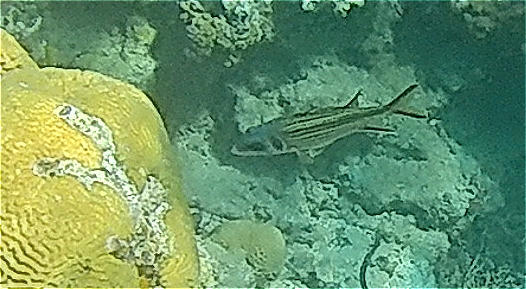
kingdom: Animalia
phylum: Chordata
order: Beryciformes
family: Holocentridae
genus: Neoniphon
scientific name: Neoniphon sammara
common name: Sammara squirrelfish
